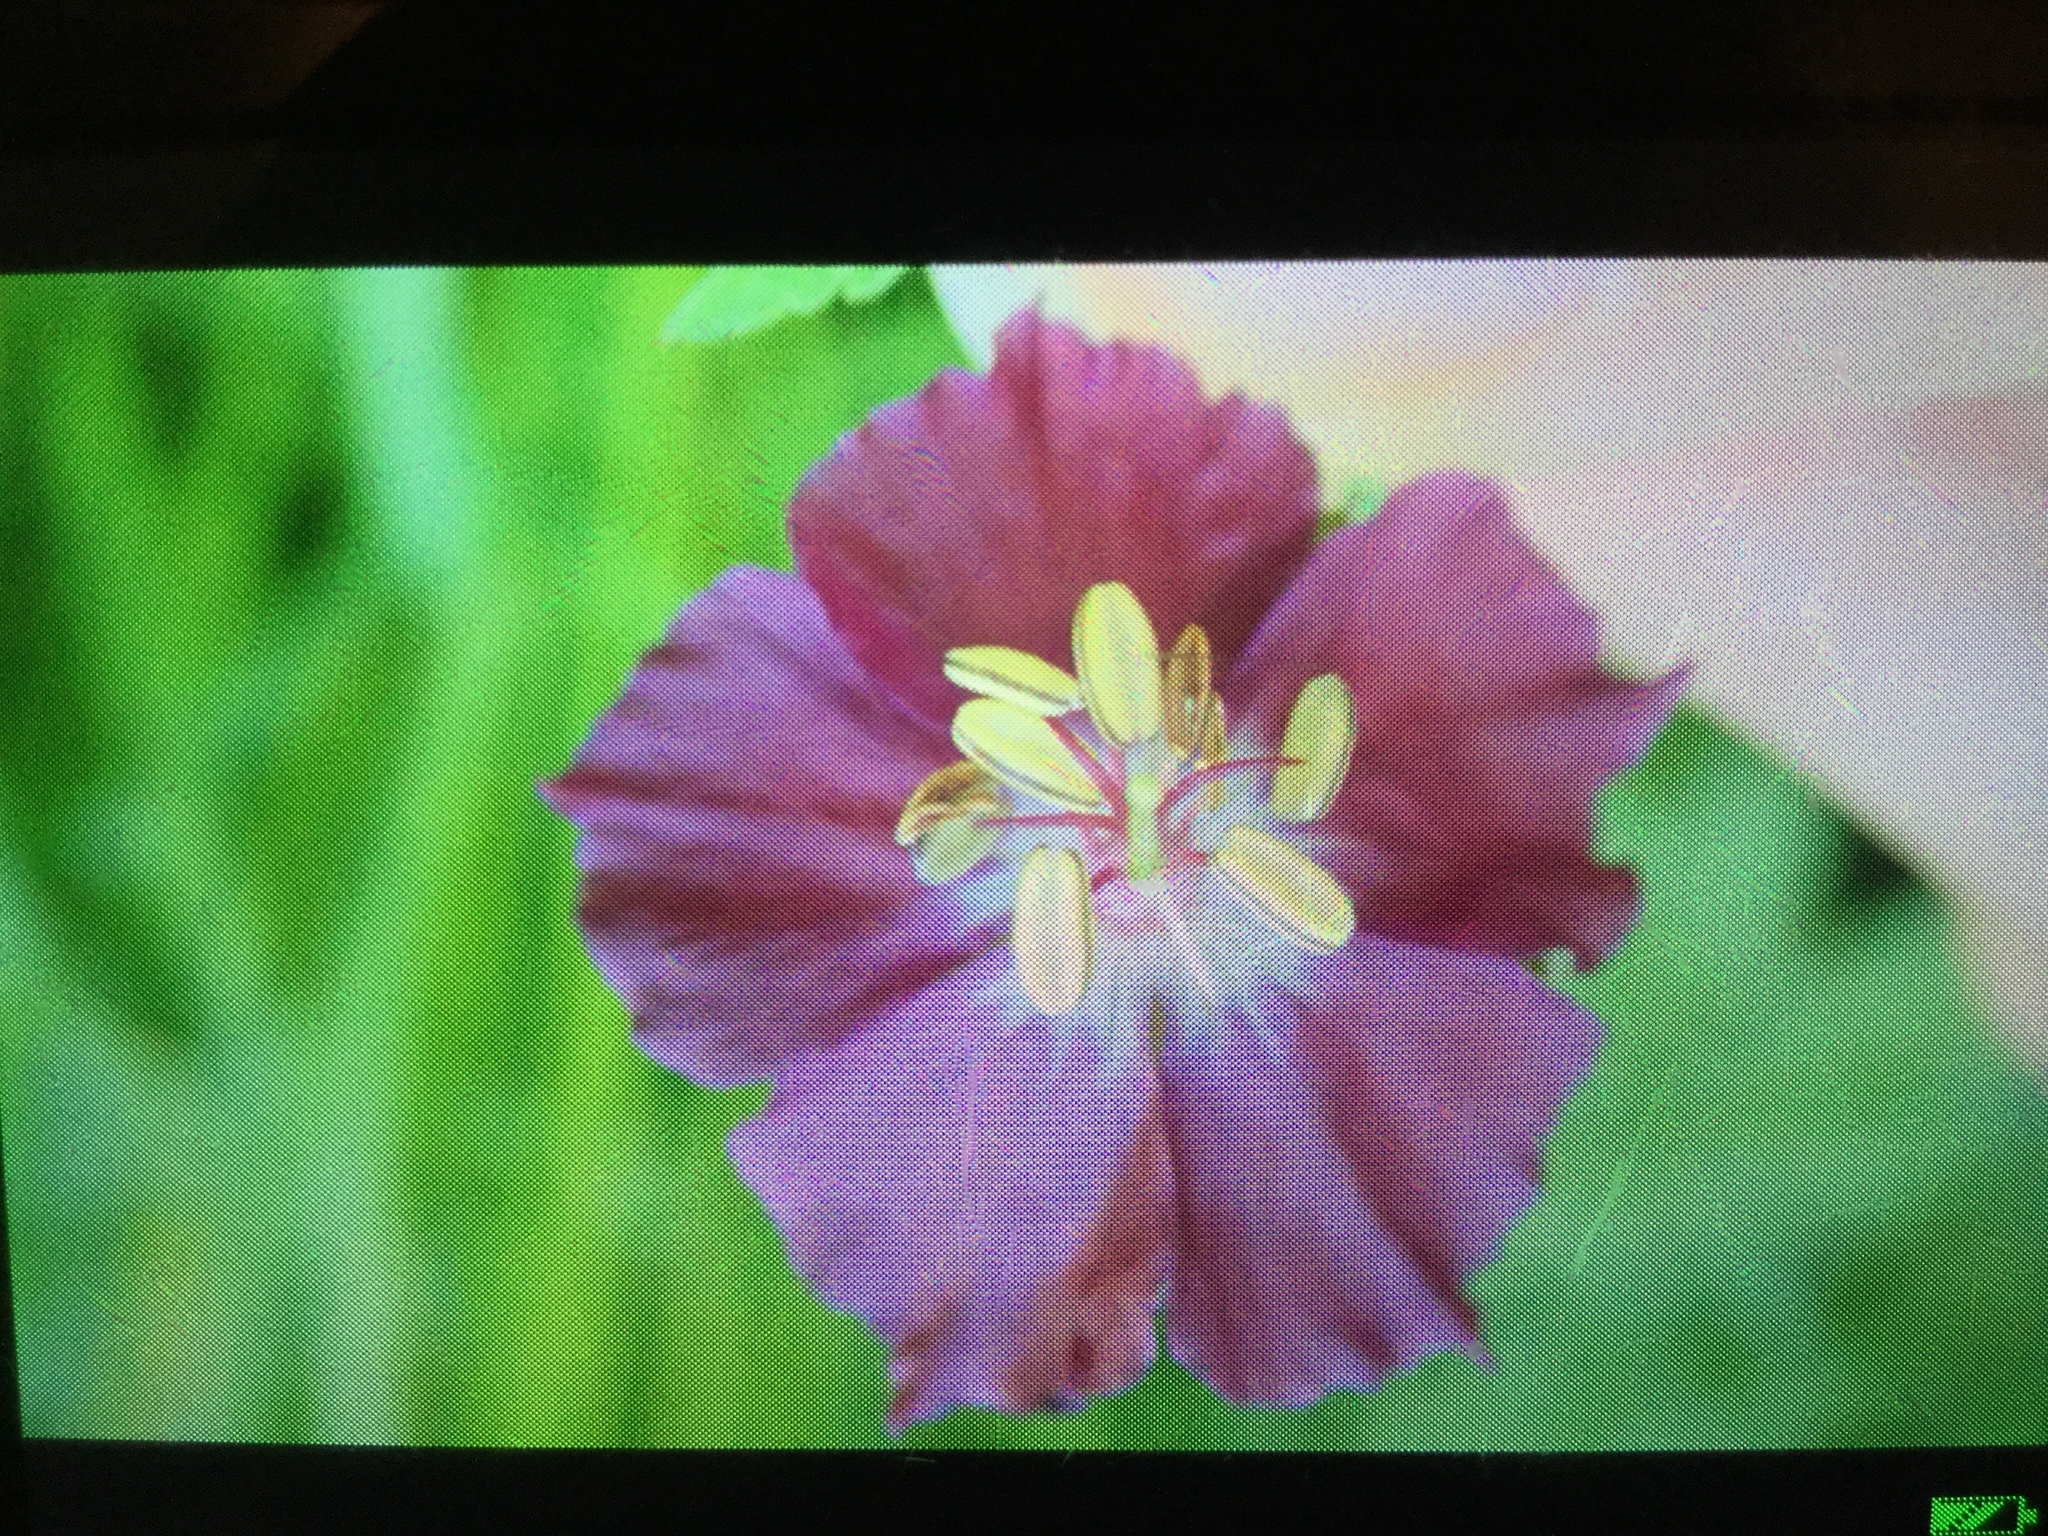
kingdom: Plantae
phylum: Tracheophyta
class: Magnoliopsida
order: Geraniales
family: Geraniaceae
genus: Geranium
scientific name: Geranium phaeum
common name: Dusky crane's-bill
